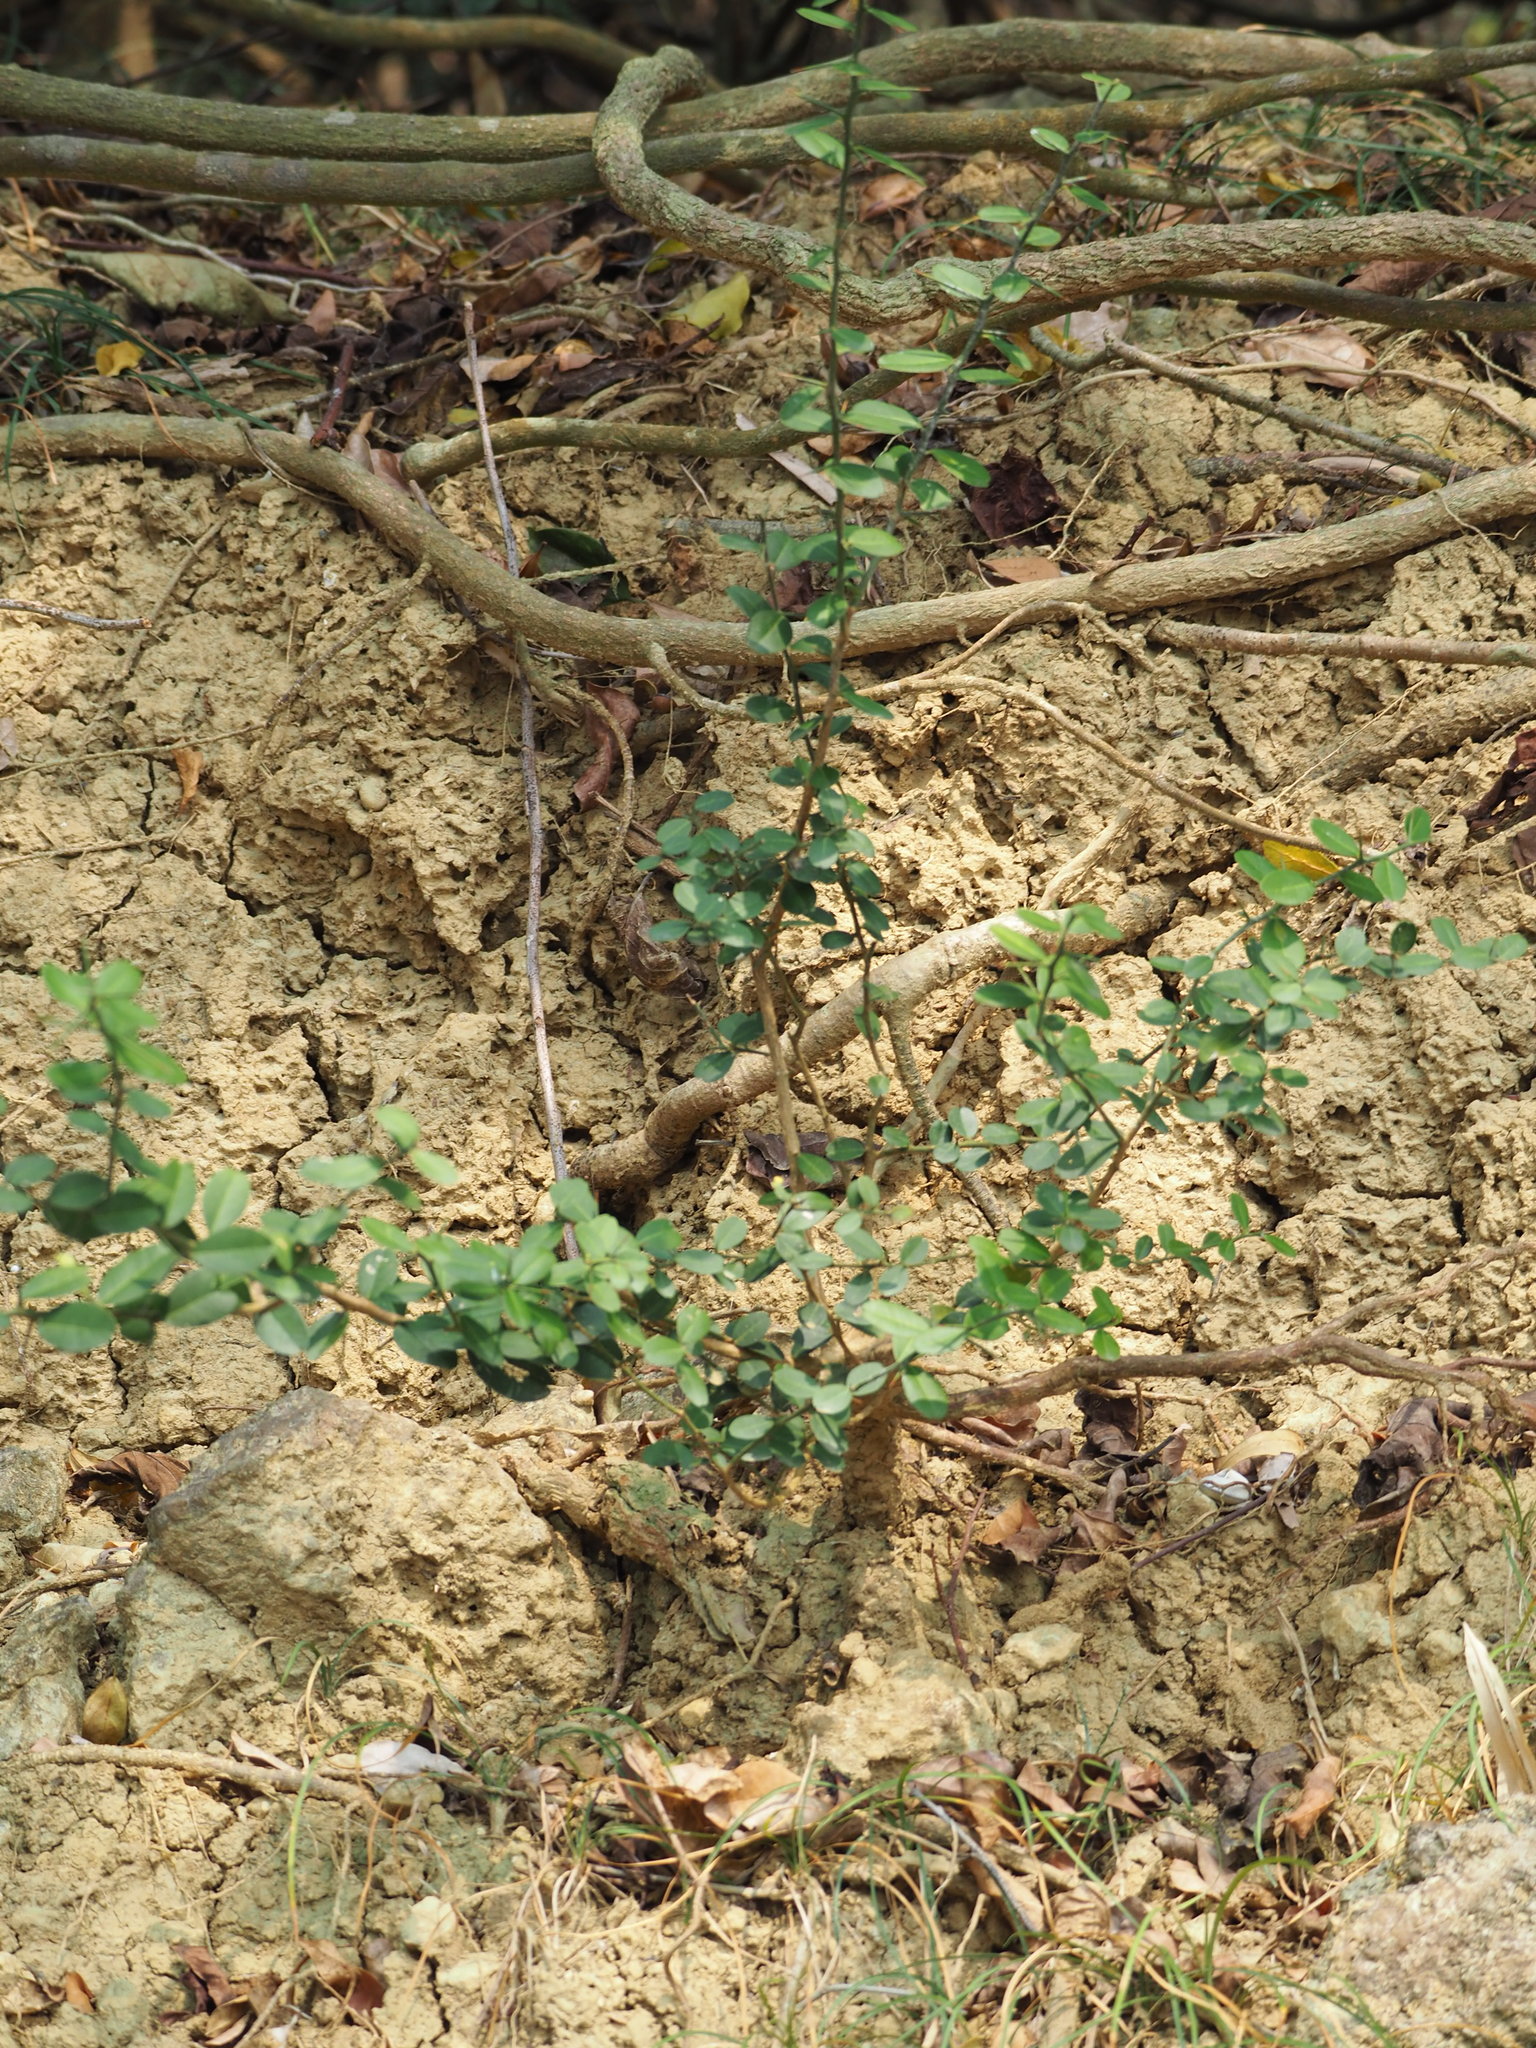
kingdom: Plantae
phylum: Tracheophyta
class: Magnoliopsida
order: Sapindales
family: Rutaceae
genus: Atalantia
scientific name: Atalantia buxifolia
